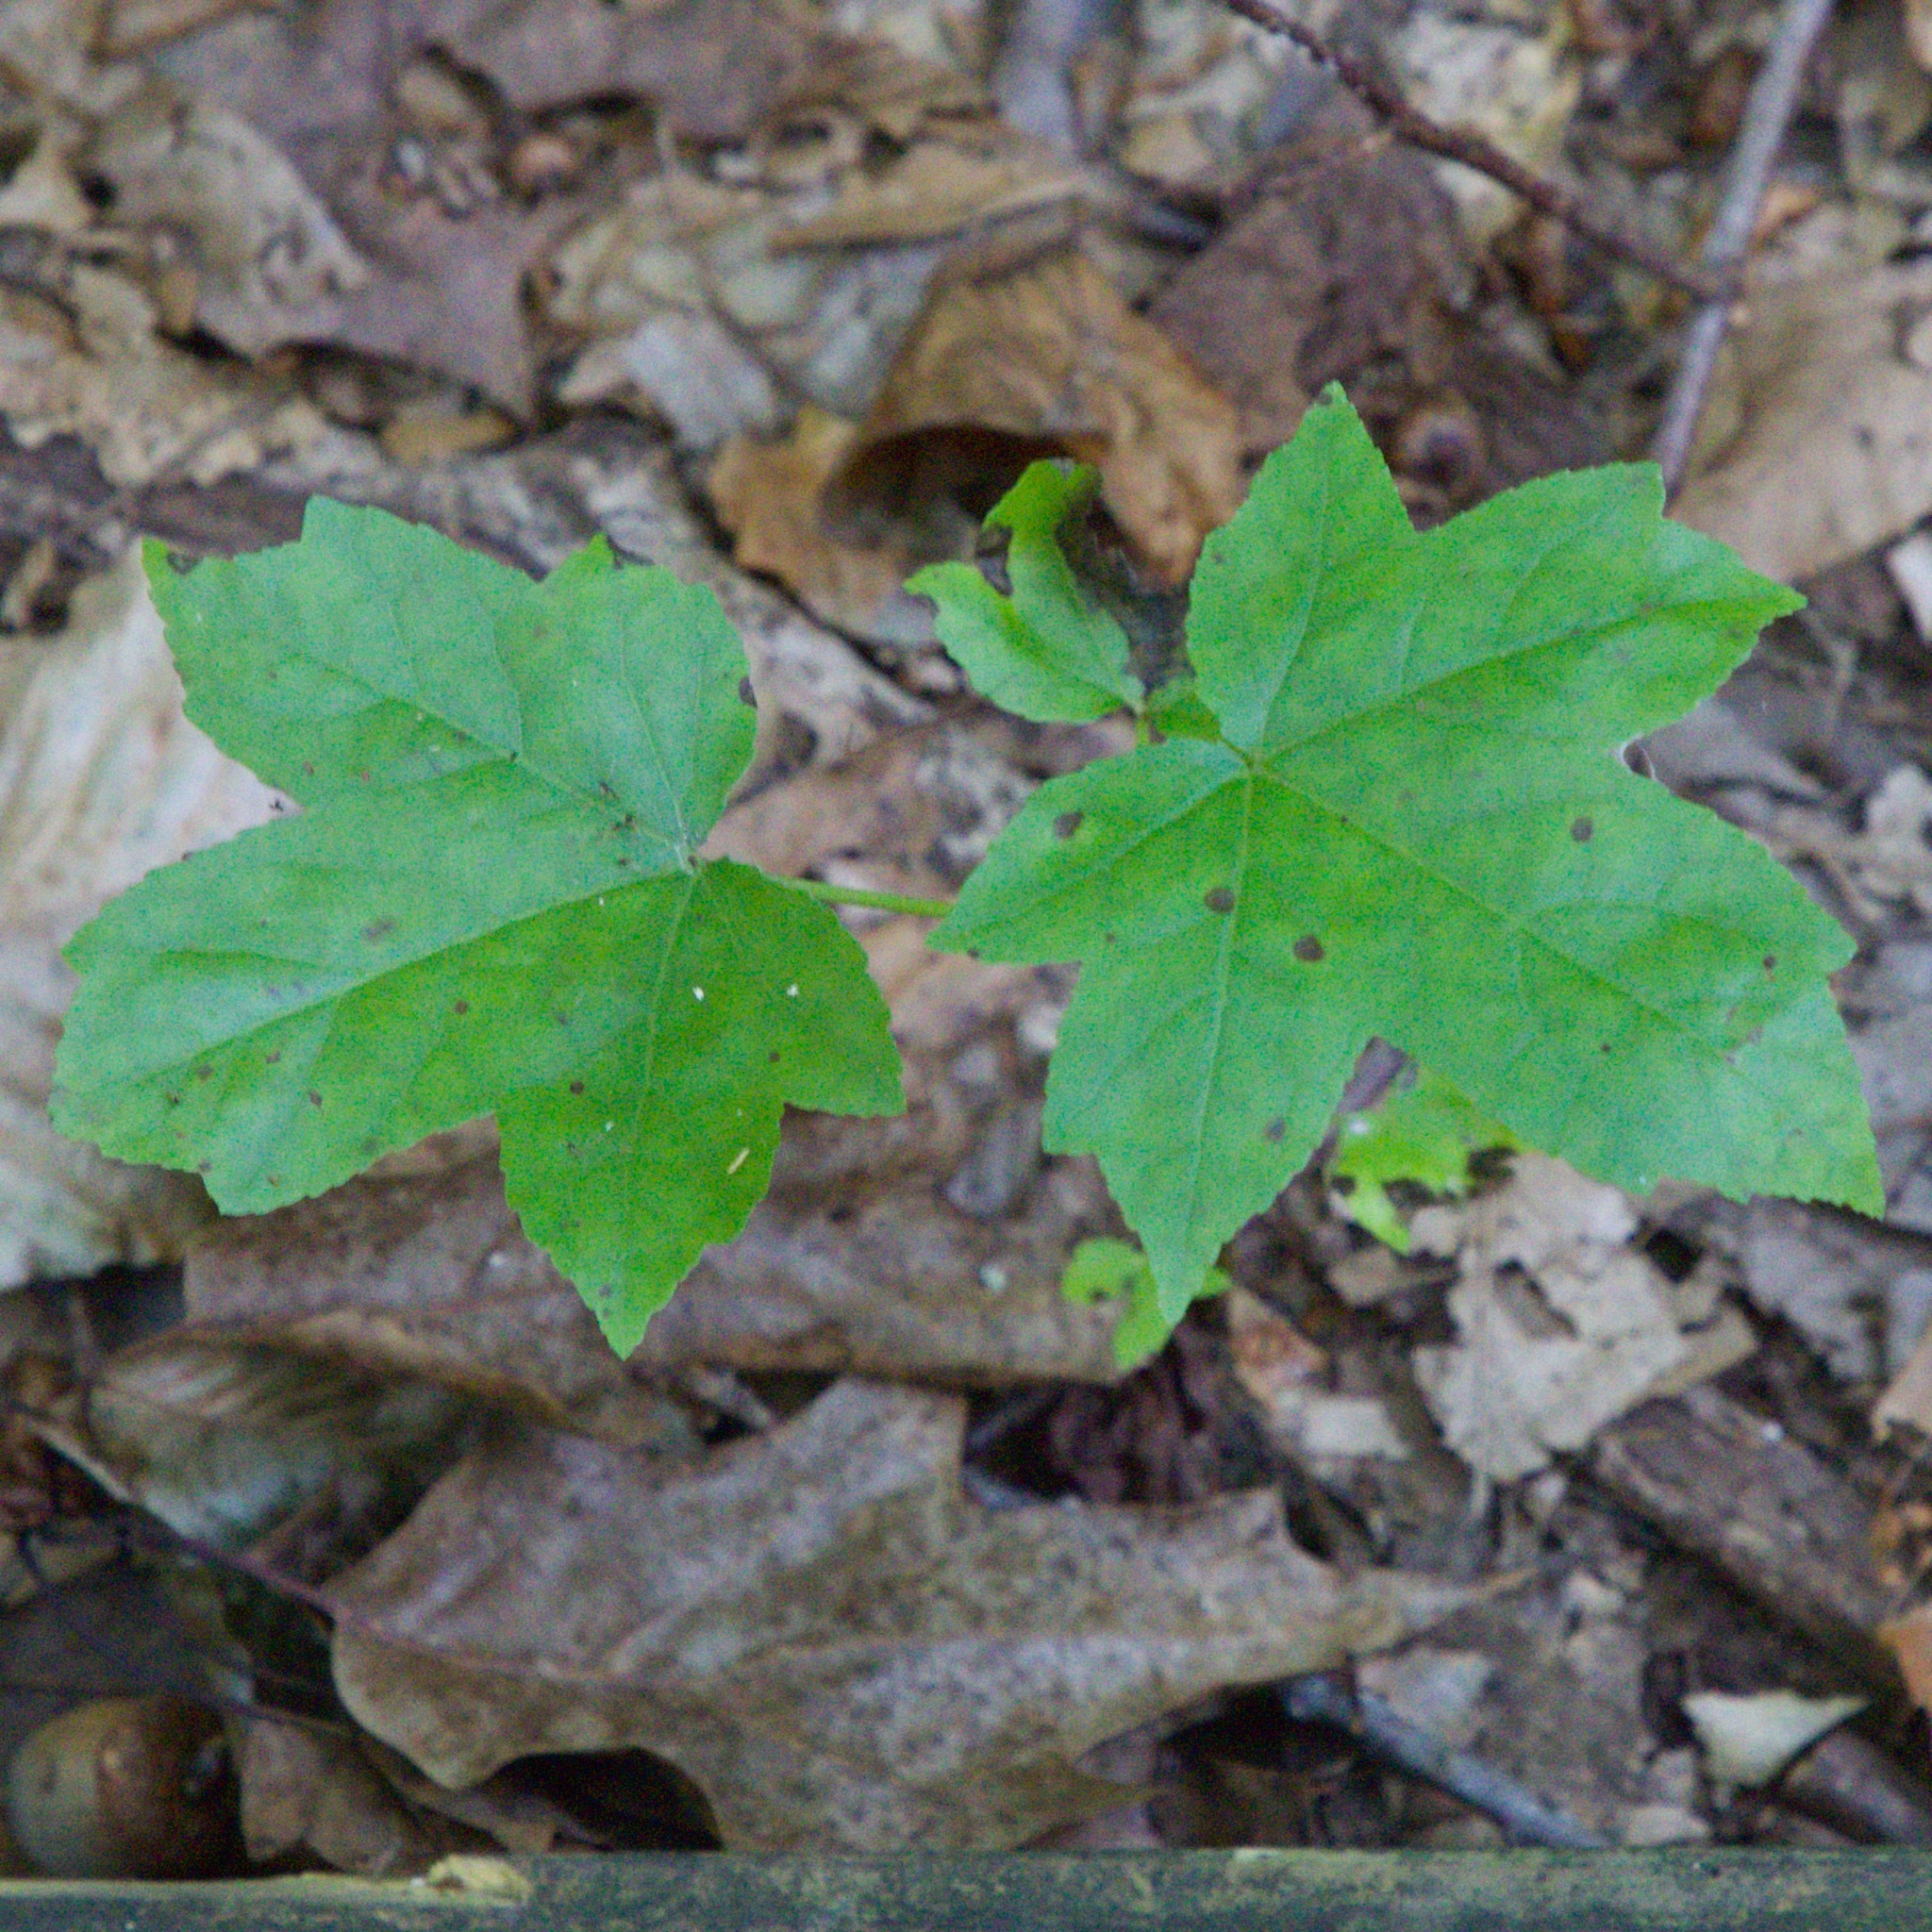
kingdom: Plantae
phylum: Tracheophyta
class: Magnoliopsida
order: Saxifragales
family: Altingiaceae
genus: Liquidambar
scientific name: Liquidambar styraciflua
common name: Sweet gum
